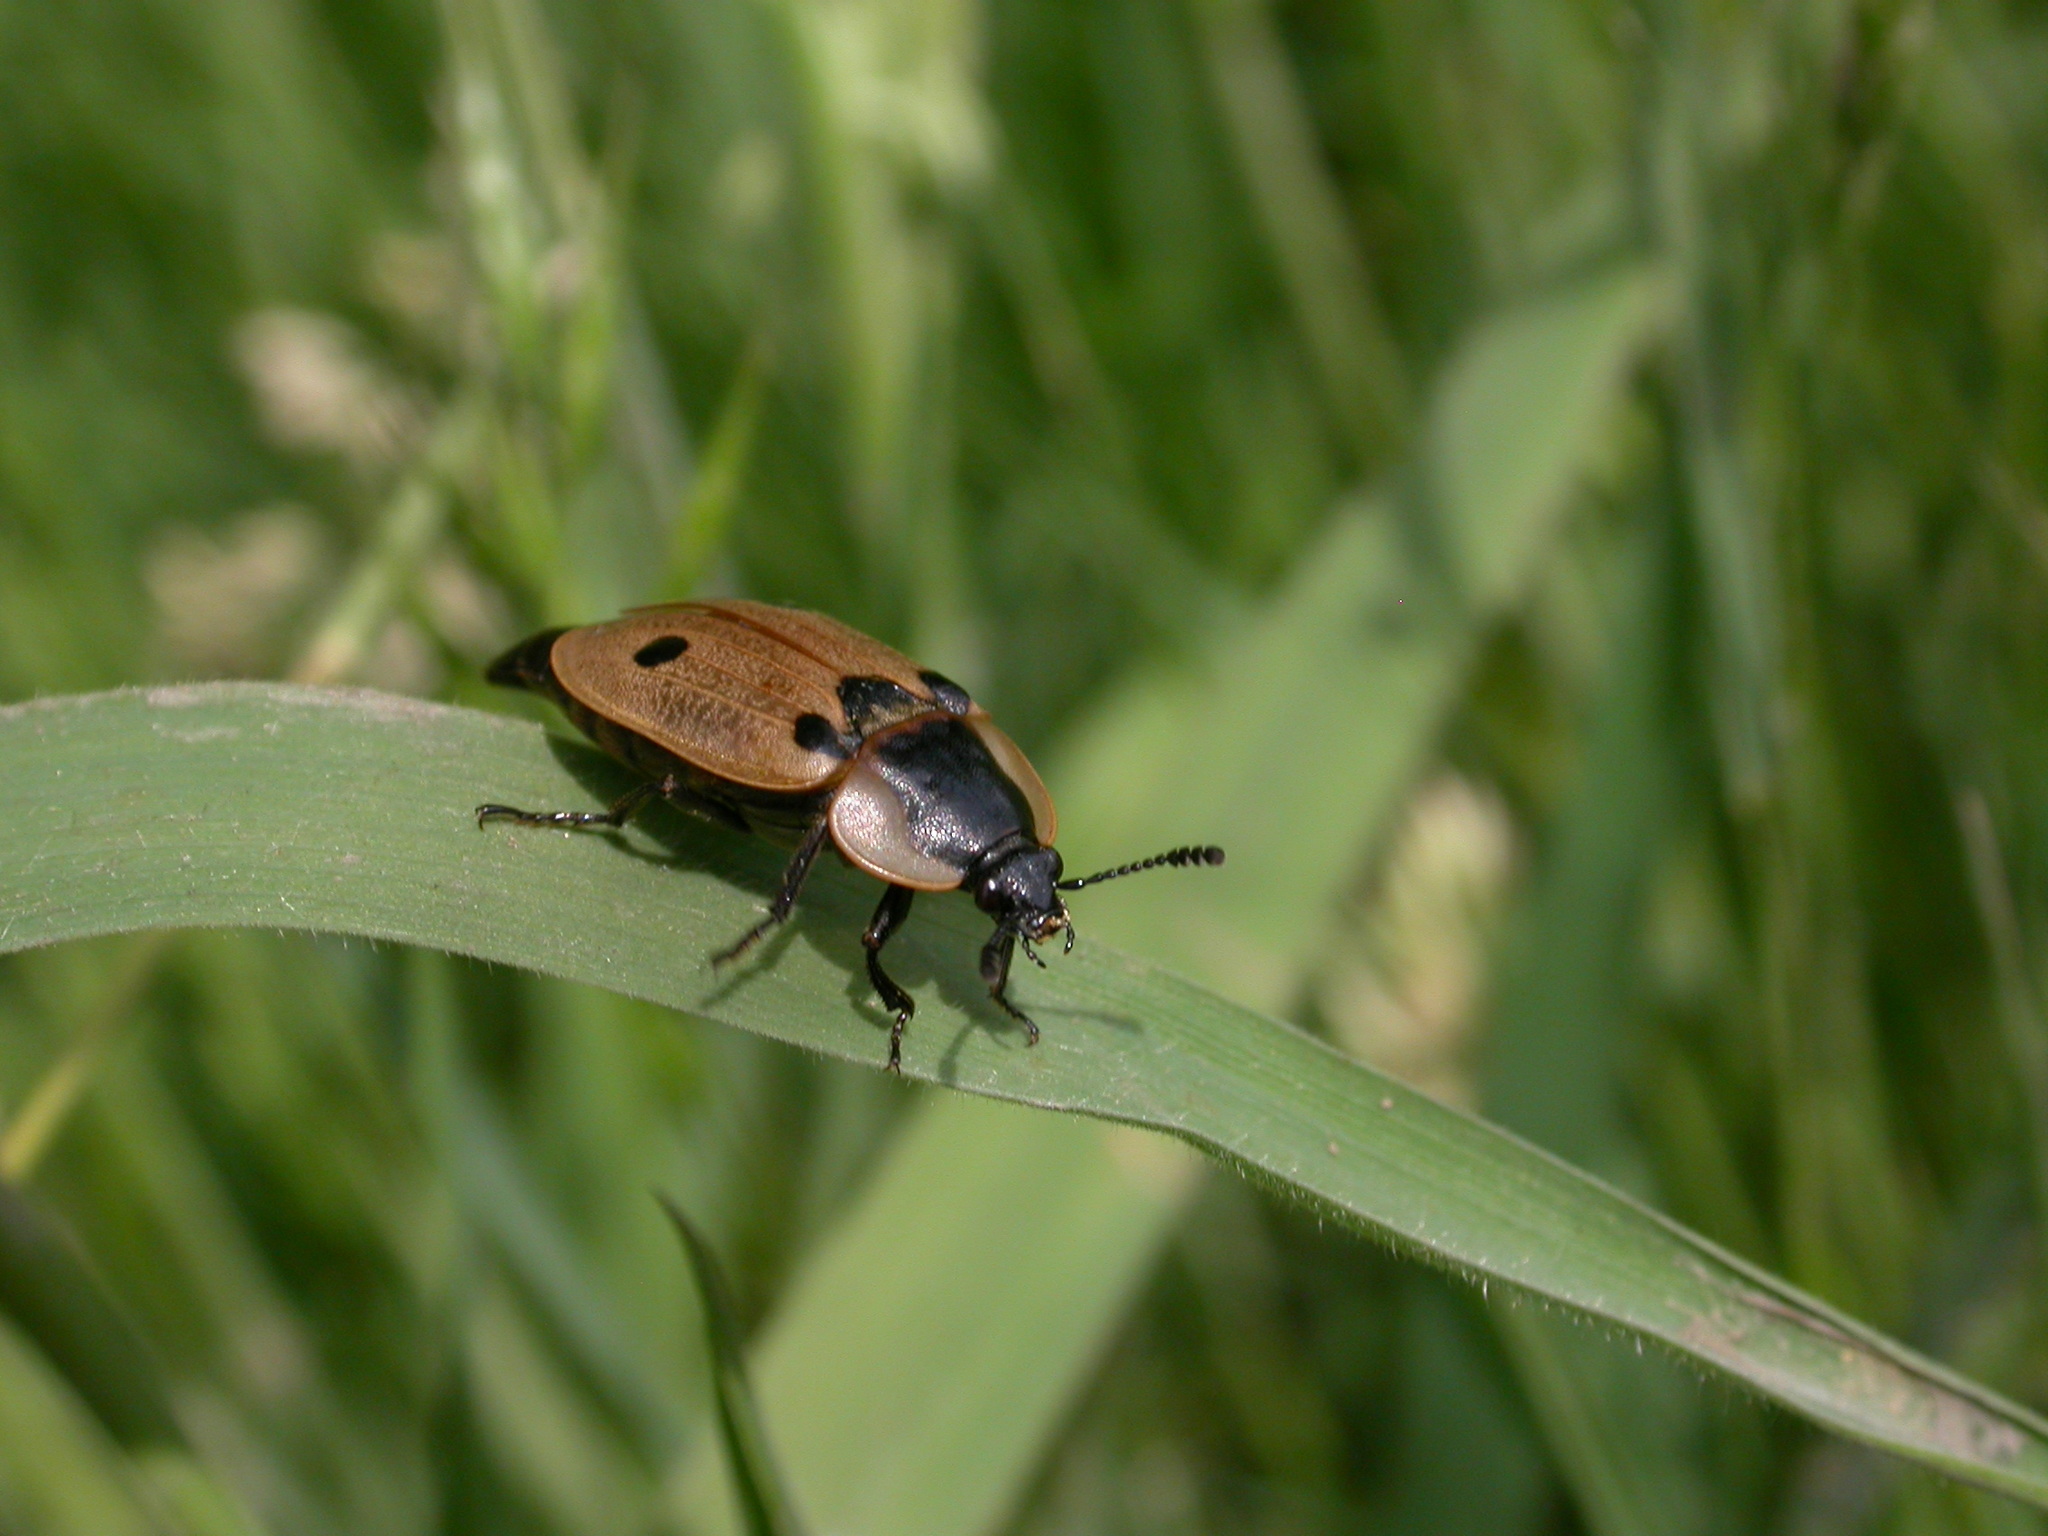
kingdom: Animalia
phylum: Arthropoda
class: Insecta
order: Coleoptera
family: Staphylinidae
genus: Dendroxena
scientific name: Dendroxena quadrimaculata
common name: Carrion beetle
